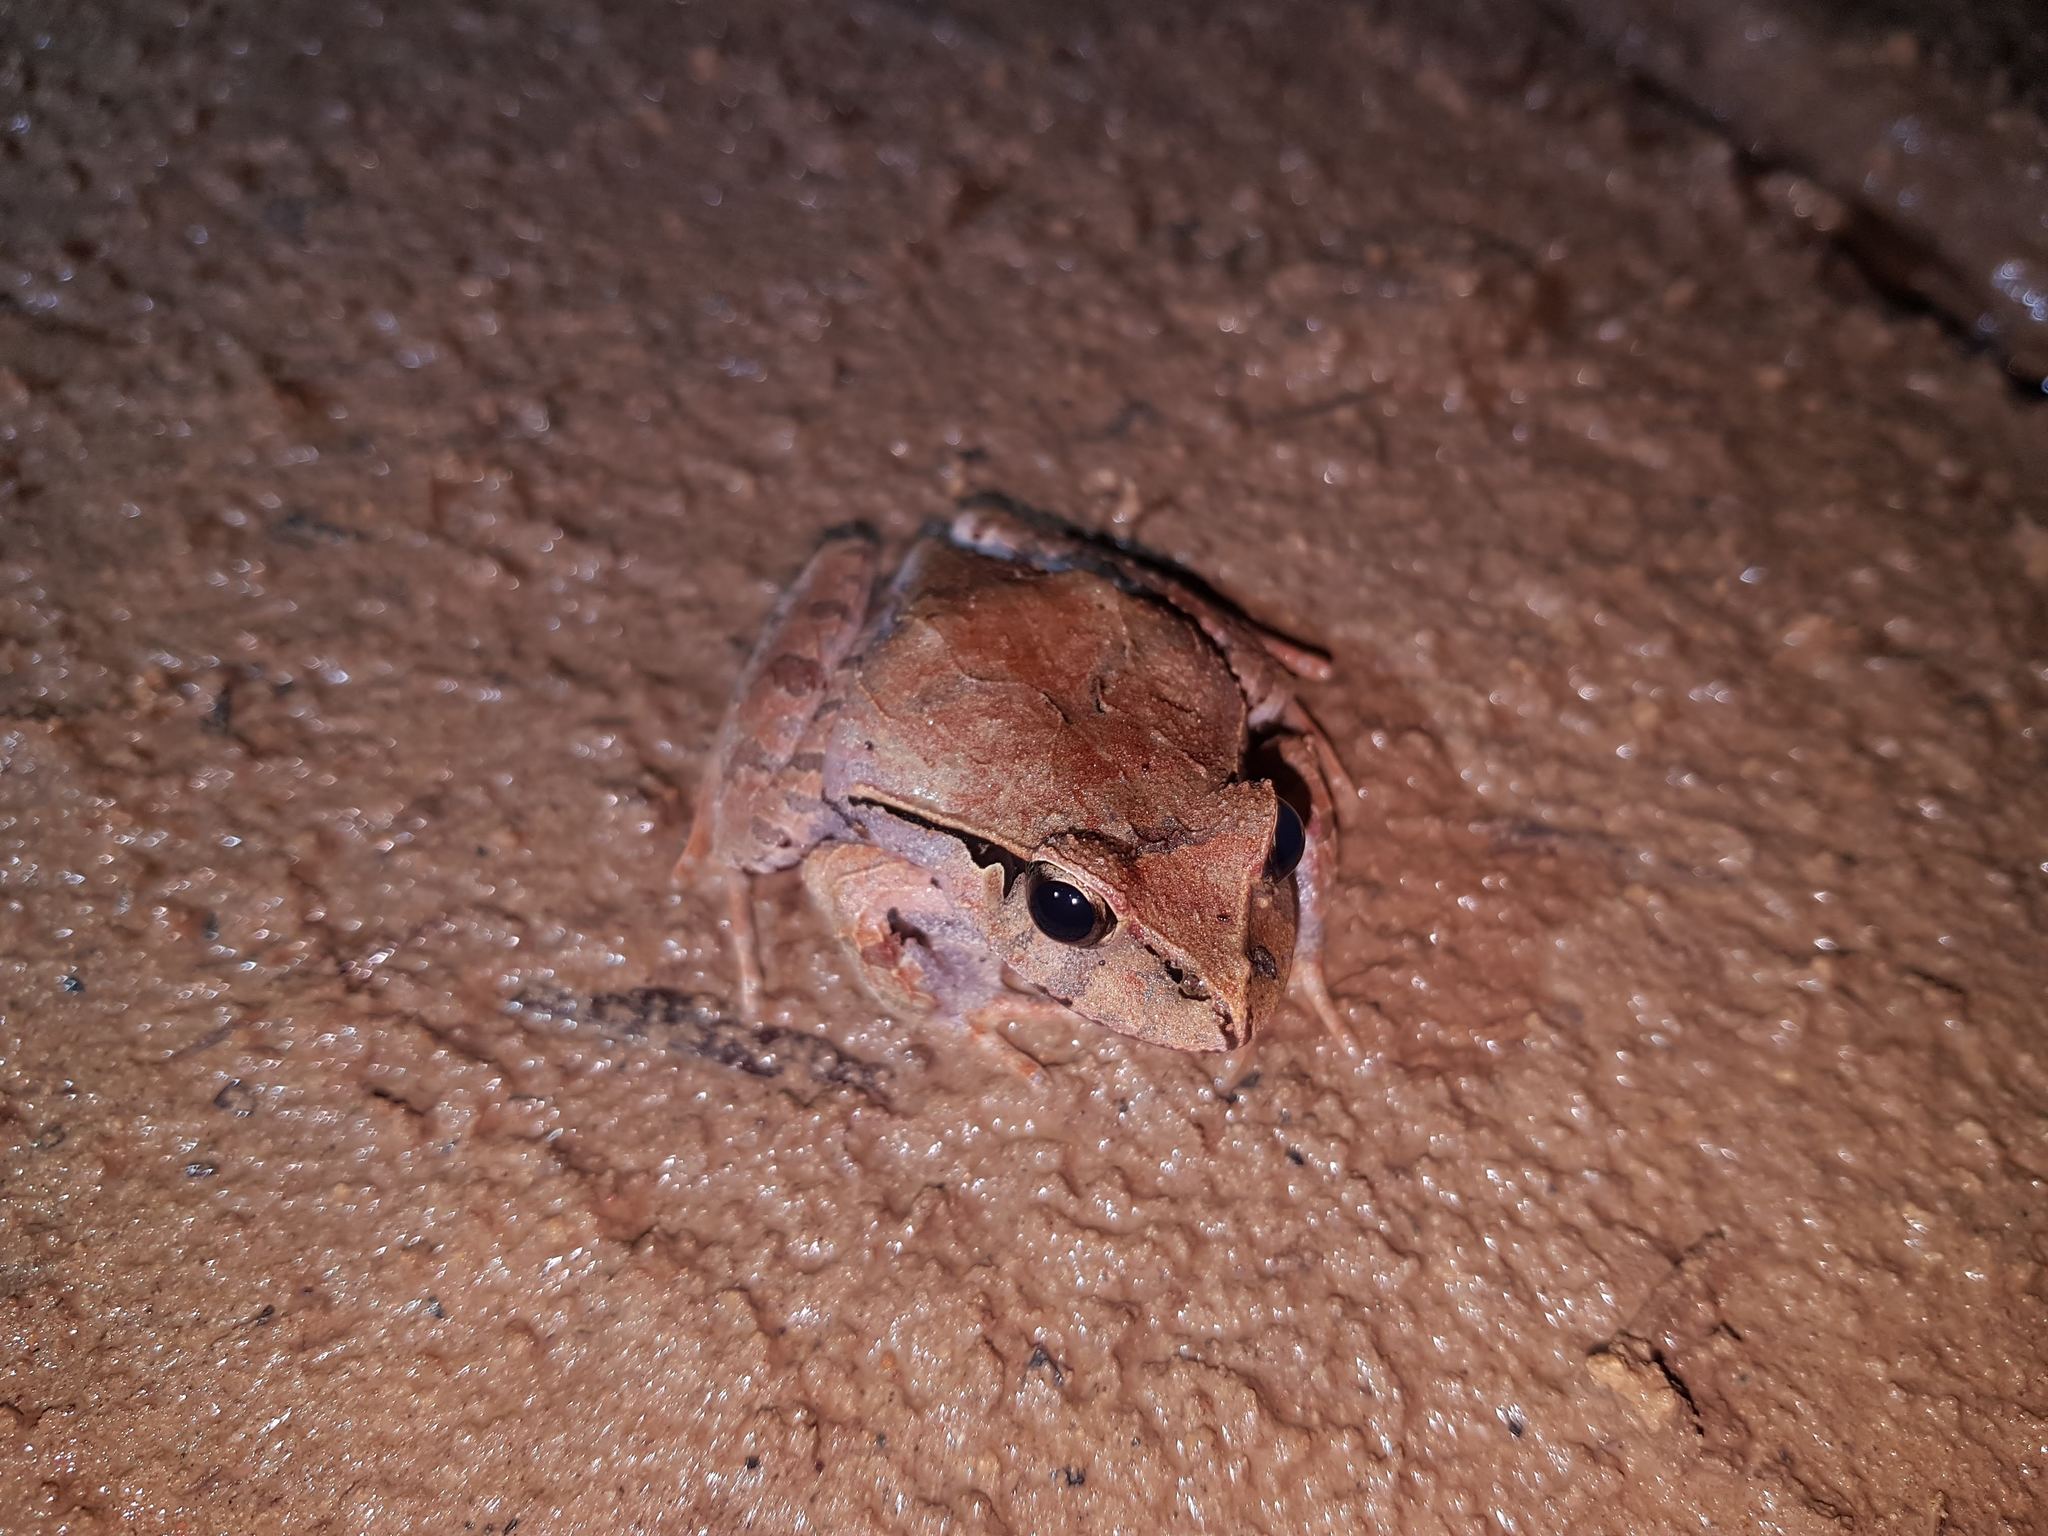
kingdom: Animalia
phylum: Chordata
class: Amphibia
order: Anura
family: Limnodynastidae
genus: Platyplectrum
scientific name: Platyplectrum
